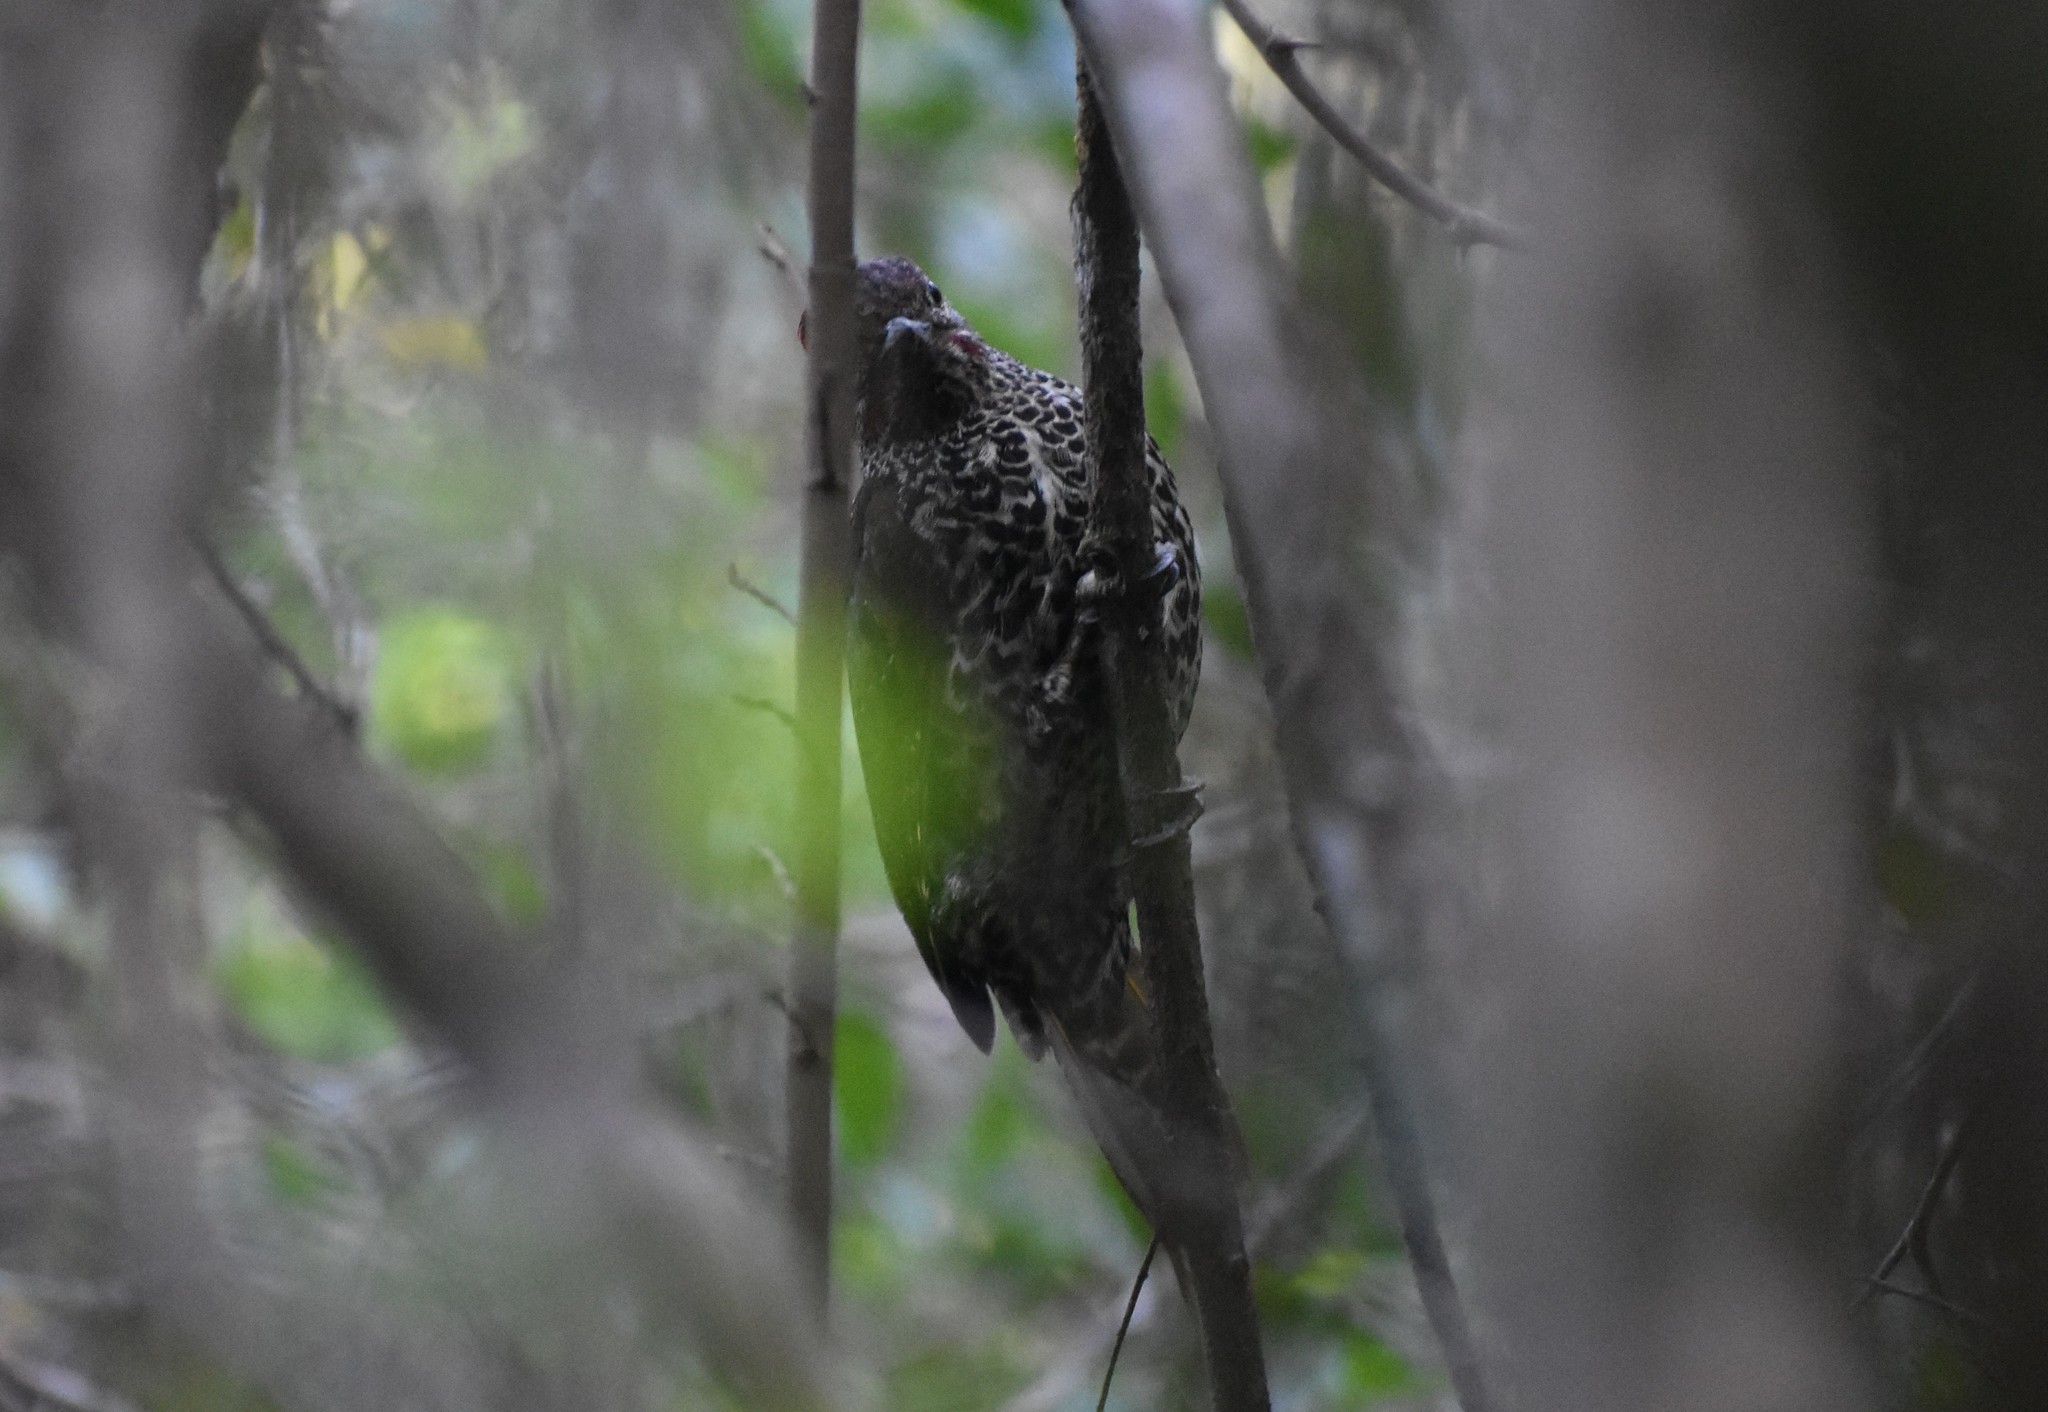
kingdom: Animalia
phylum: Chordata
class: Aves
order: Piciformes
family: Picidae
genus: Campethera
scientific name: Campethera notata
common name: Knysna woodpecker
